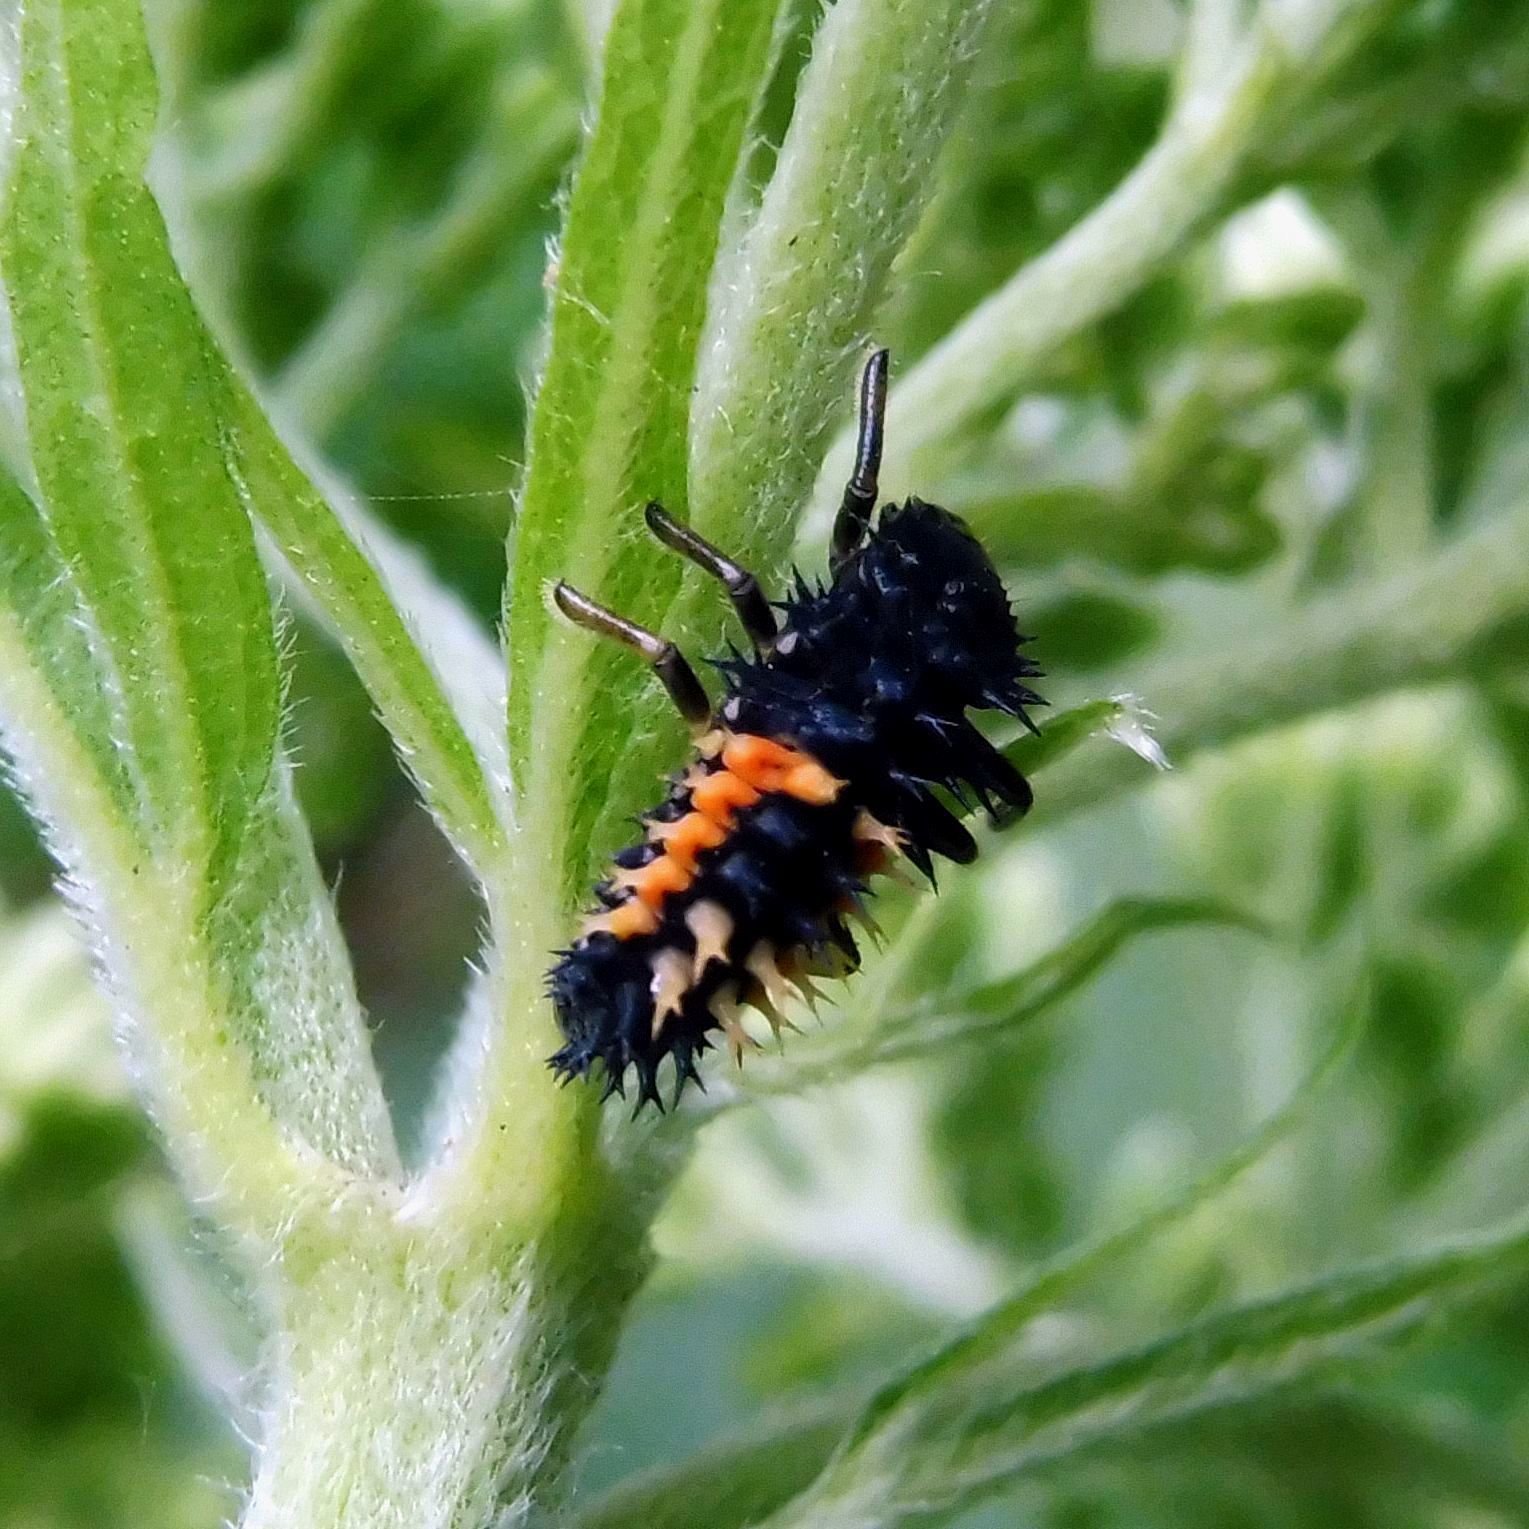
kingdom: Animalia
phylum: Arthropoda
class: Insecta
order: Coleoptera
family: Coccinellidae
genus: Harmonia
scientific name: Harmonia axyridis
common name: Harlequin ladybird
